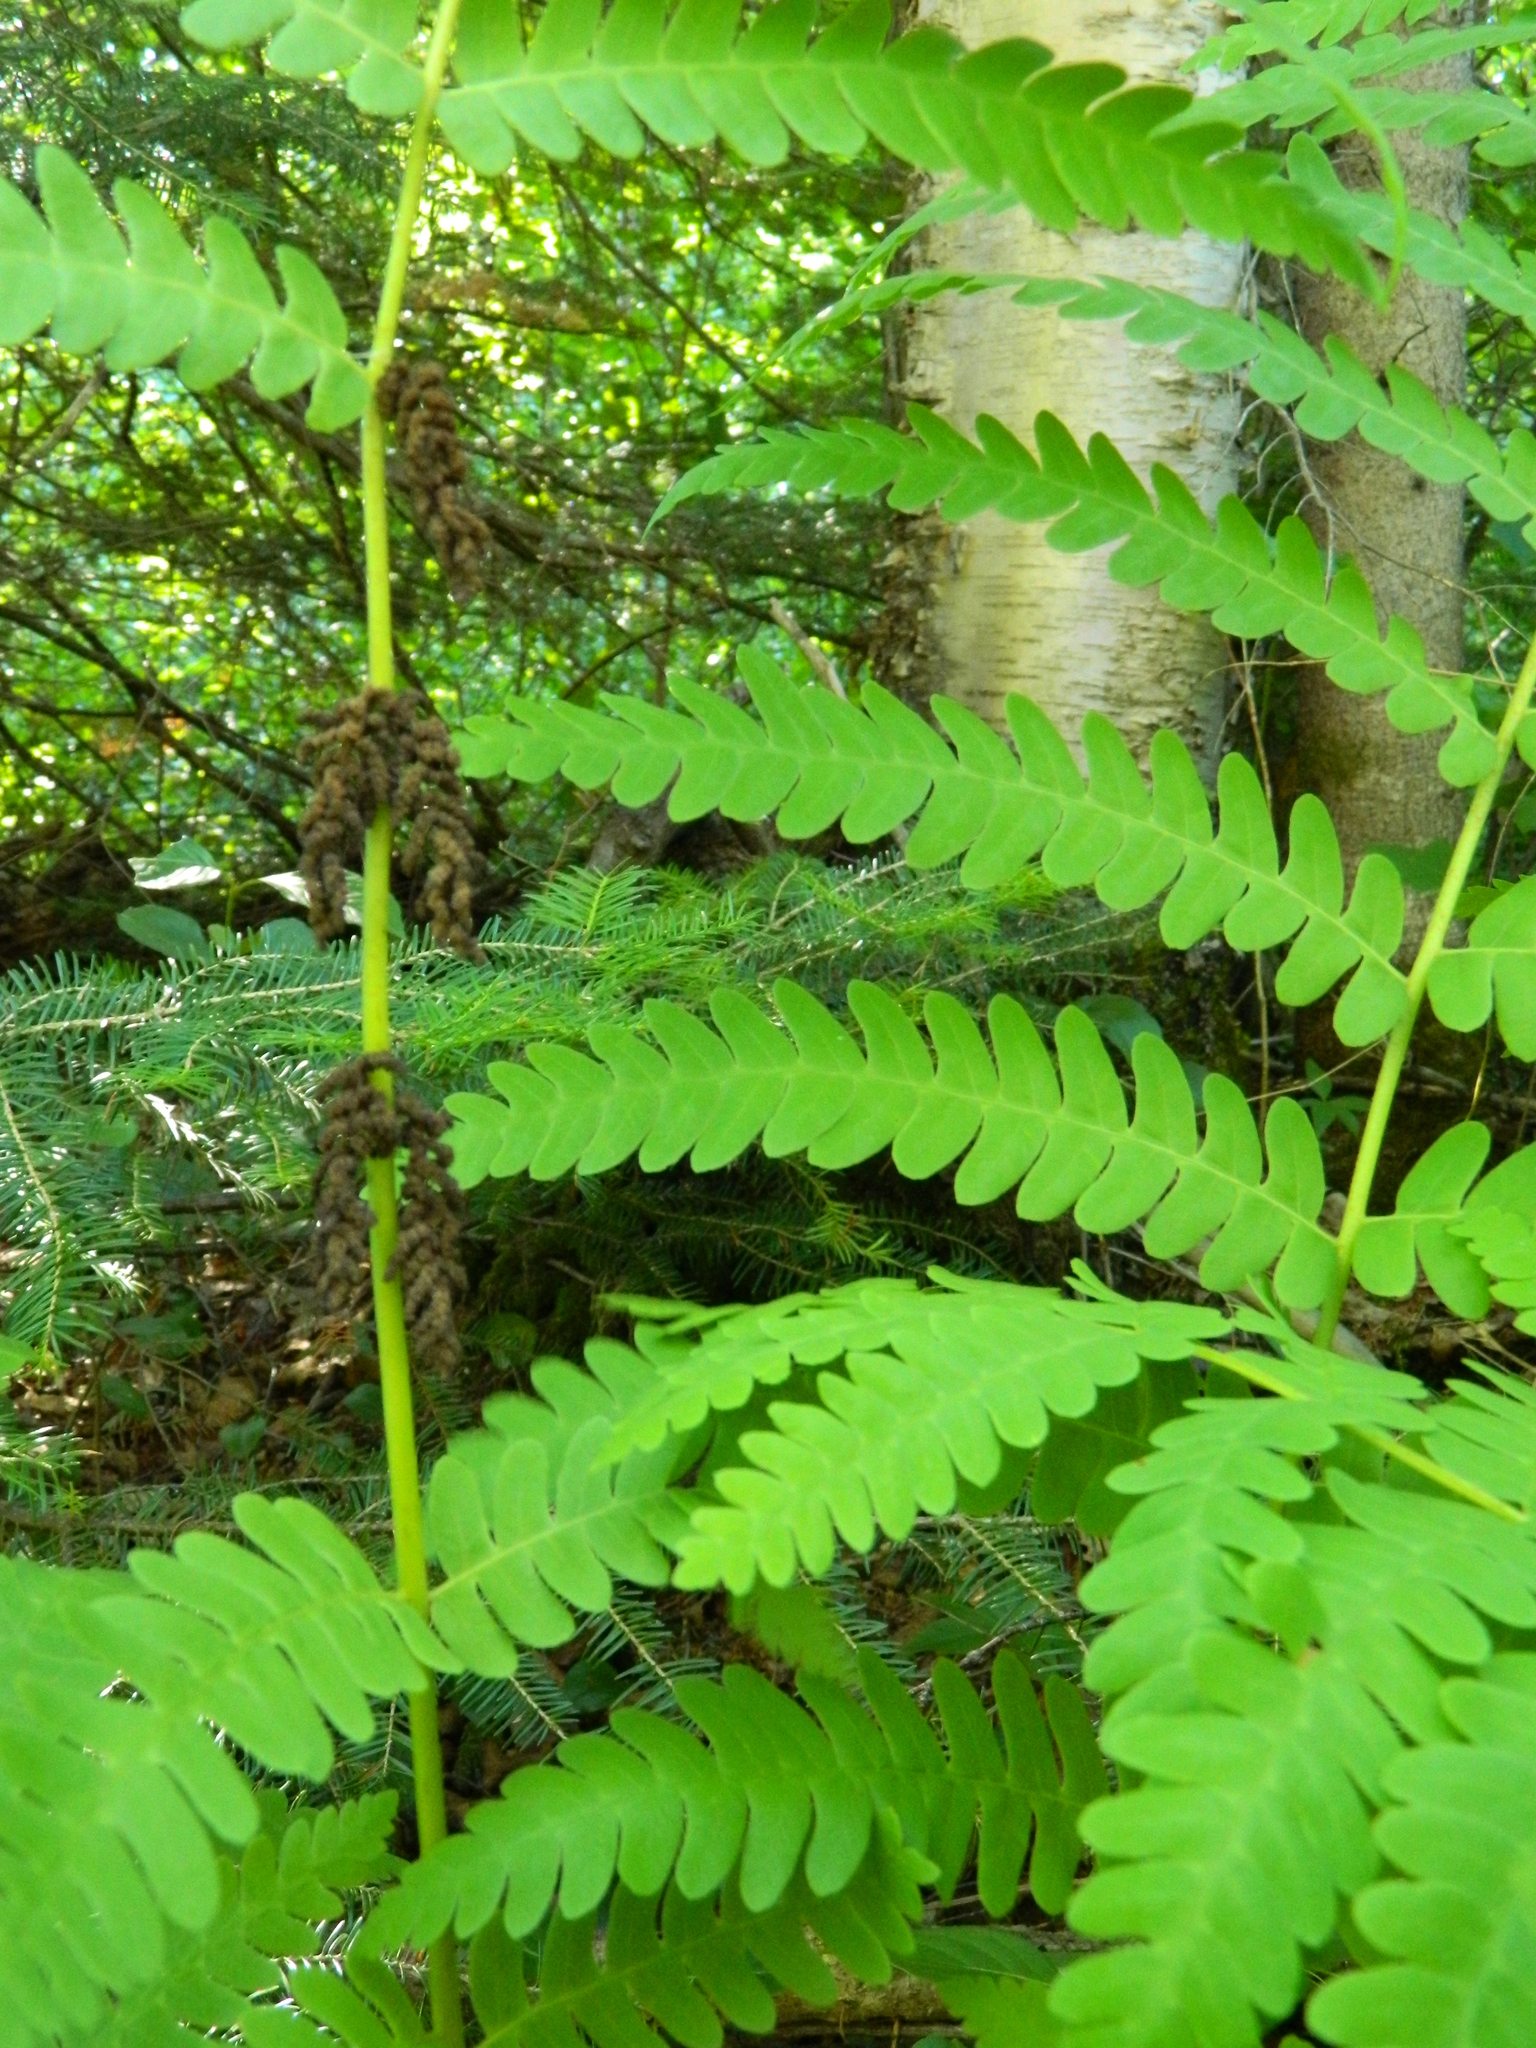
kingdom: Plantae
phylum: Tracheophyta
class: Polypodiopsida
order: Osmundales
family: Osmundaceae
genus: Claytosmunda
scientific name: Claytosmunda claytoniana
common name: Clayton's fern
